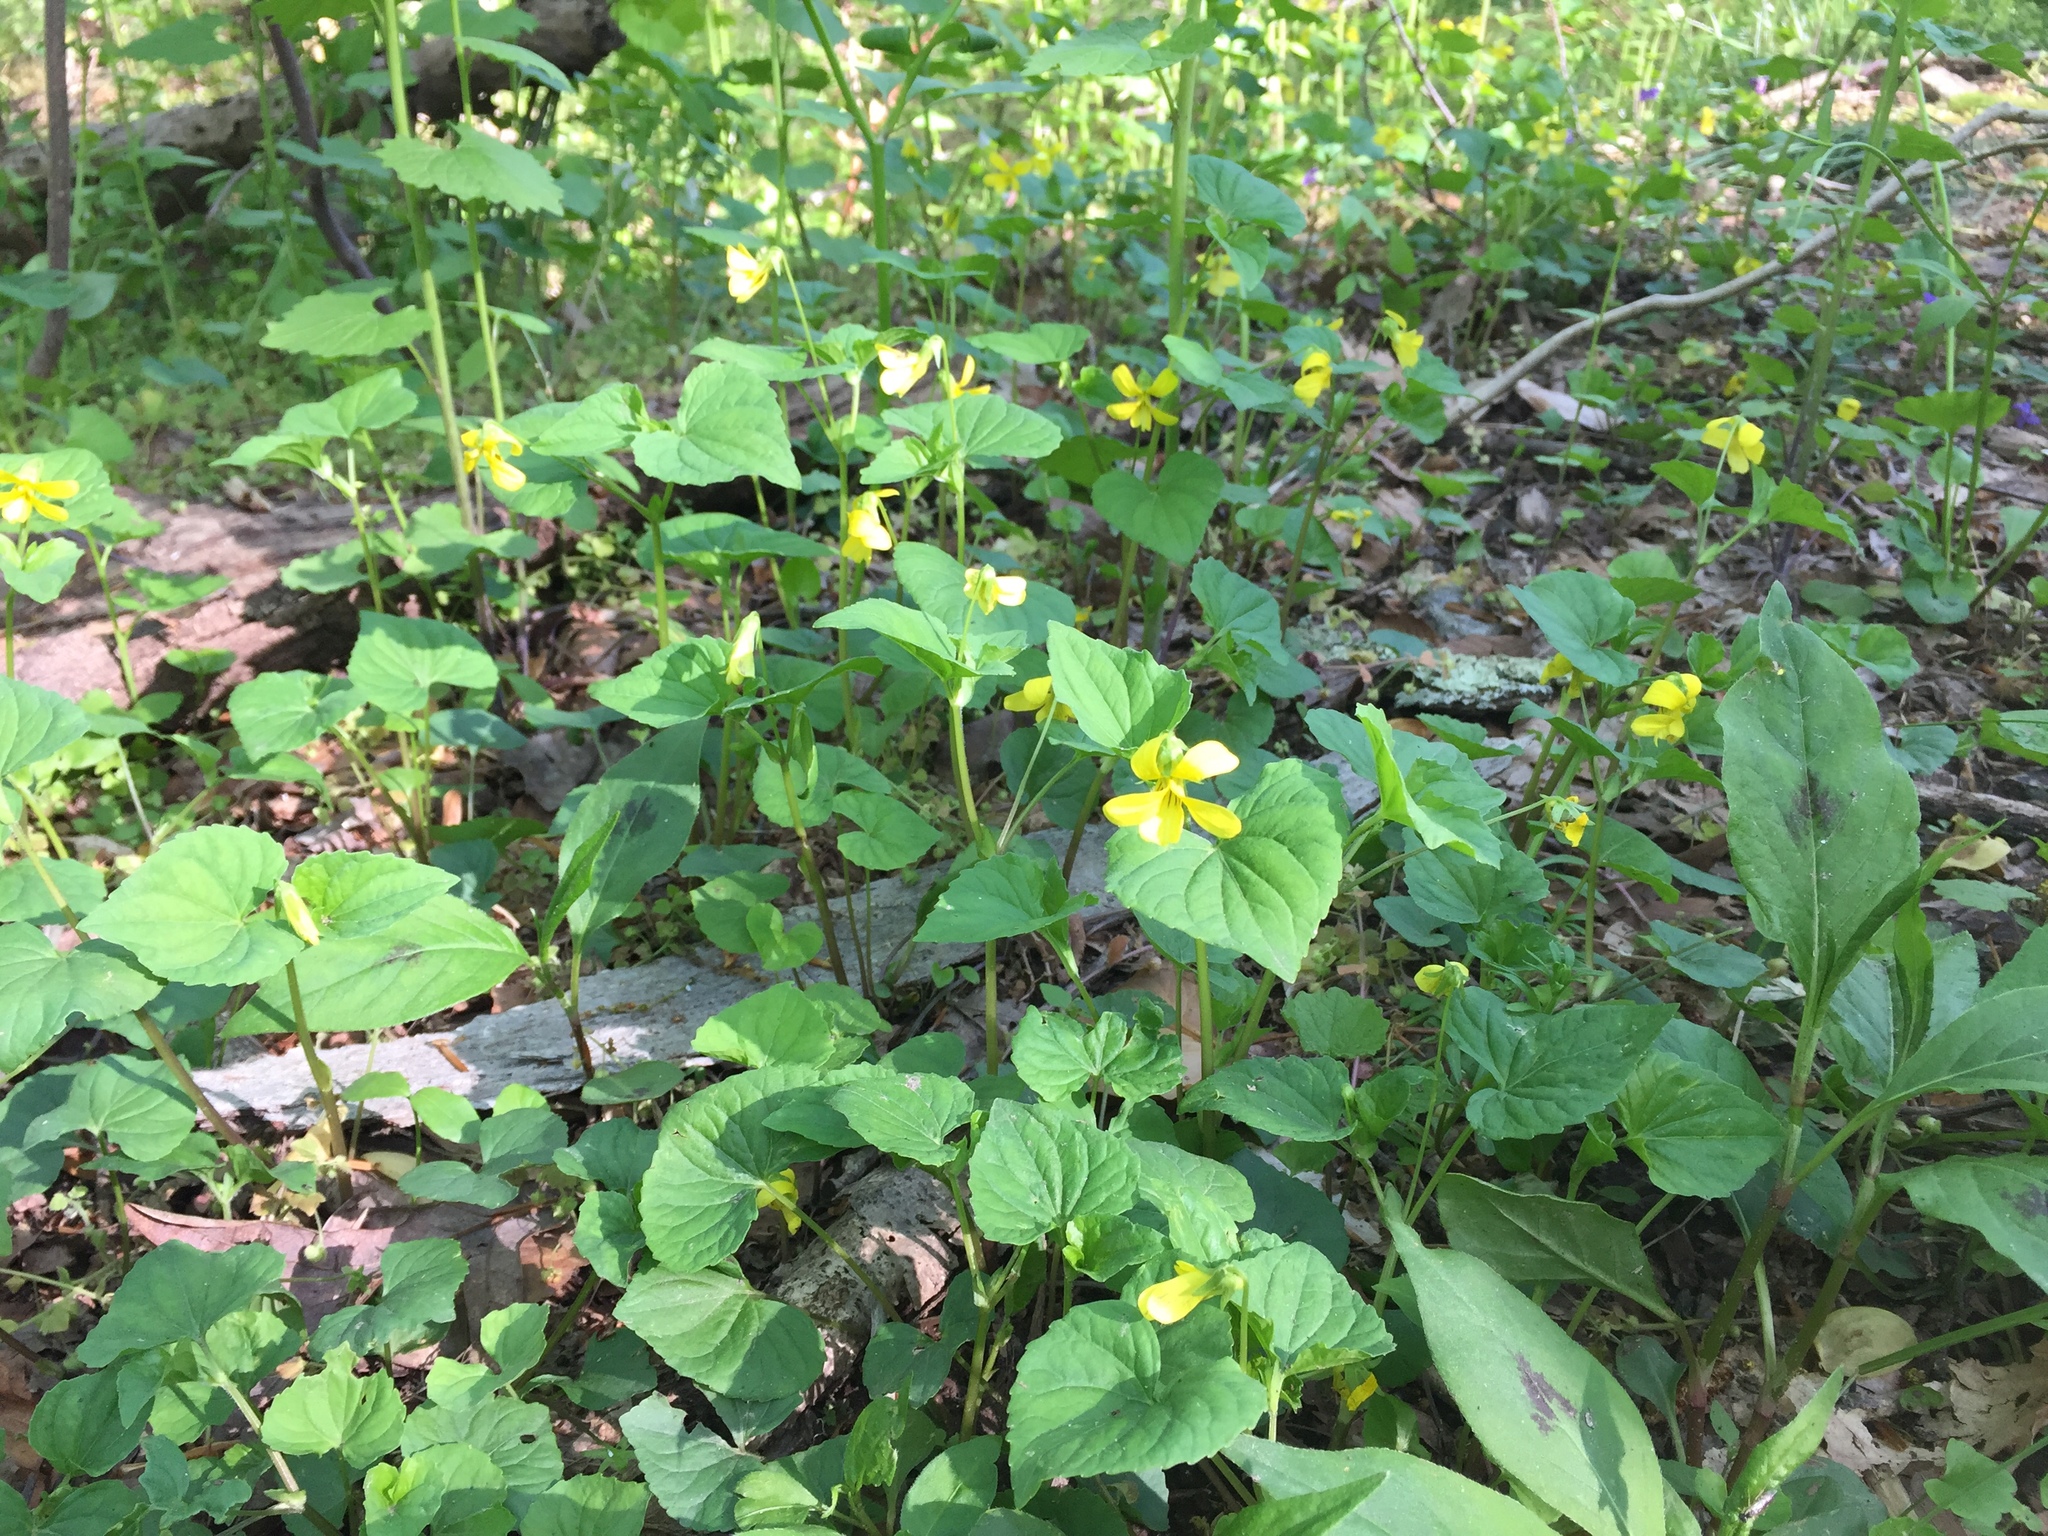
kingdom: Plantae
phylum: Tracheophyta
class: Magnoliopsida
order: Malpighiales
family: Violaceae
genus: Viola
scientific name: Viola eriocarpa
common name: Smooth yellow violet
